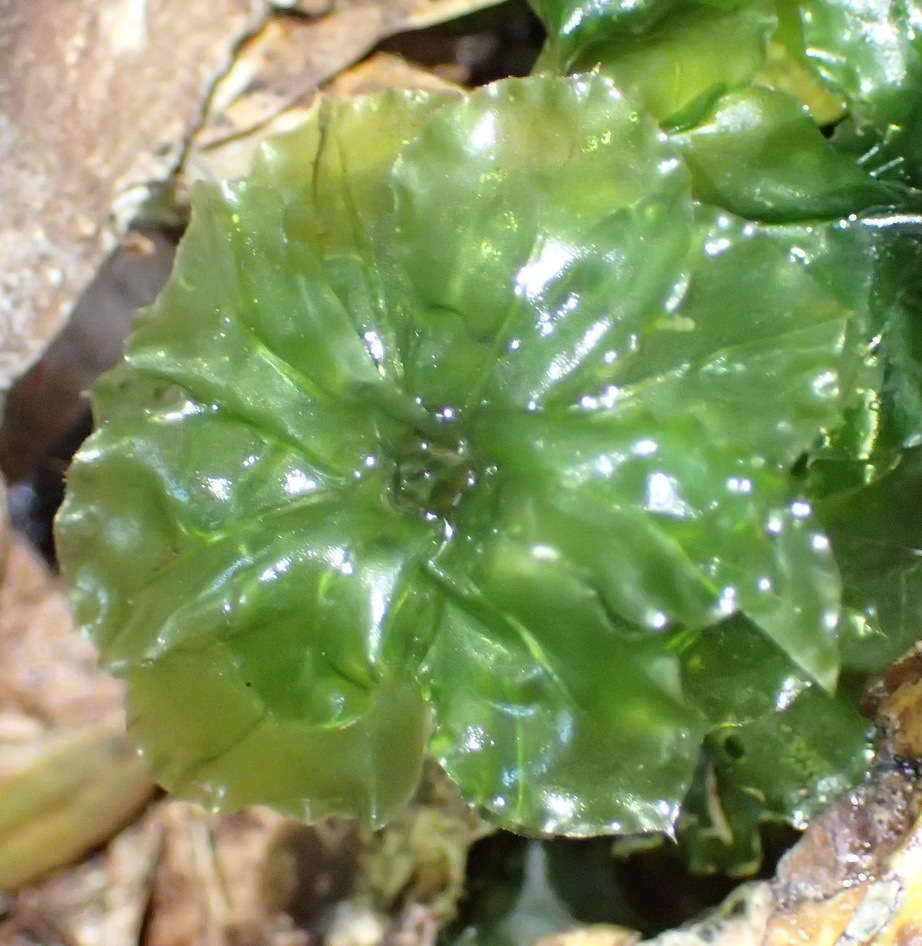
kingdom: Plantae
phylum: Bryophyta
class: Bryopsida
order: Bryales
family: Bryaceae
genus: Rhodobryum
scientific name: Rhodobryum commersonii
